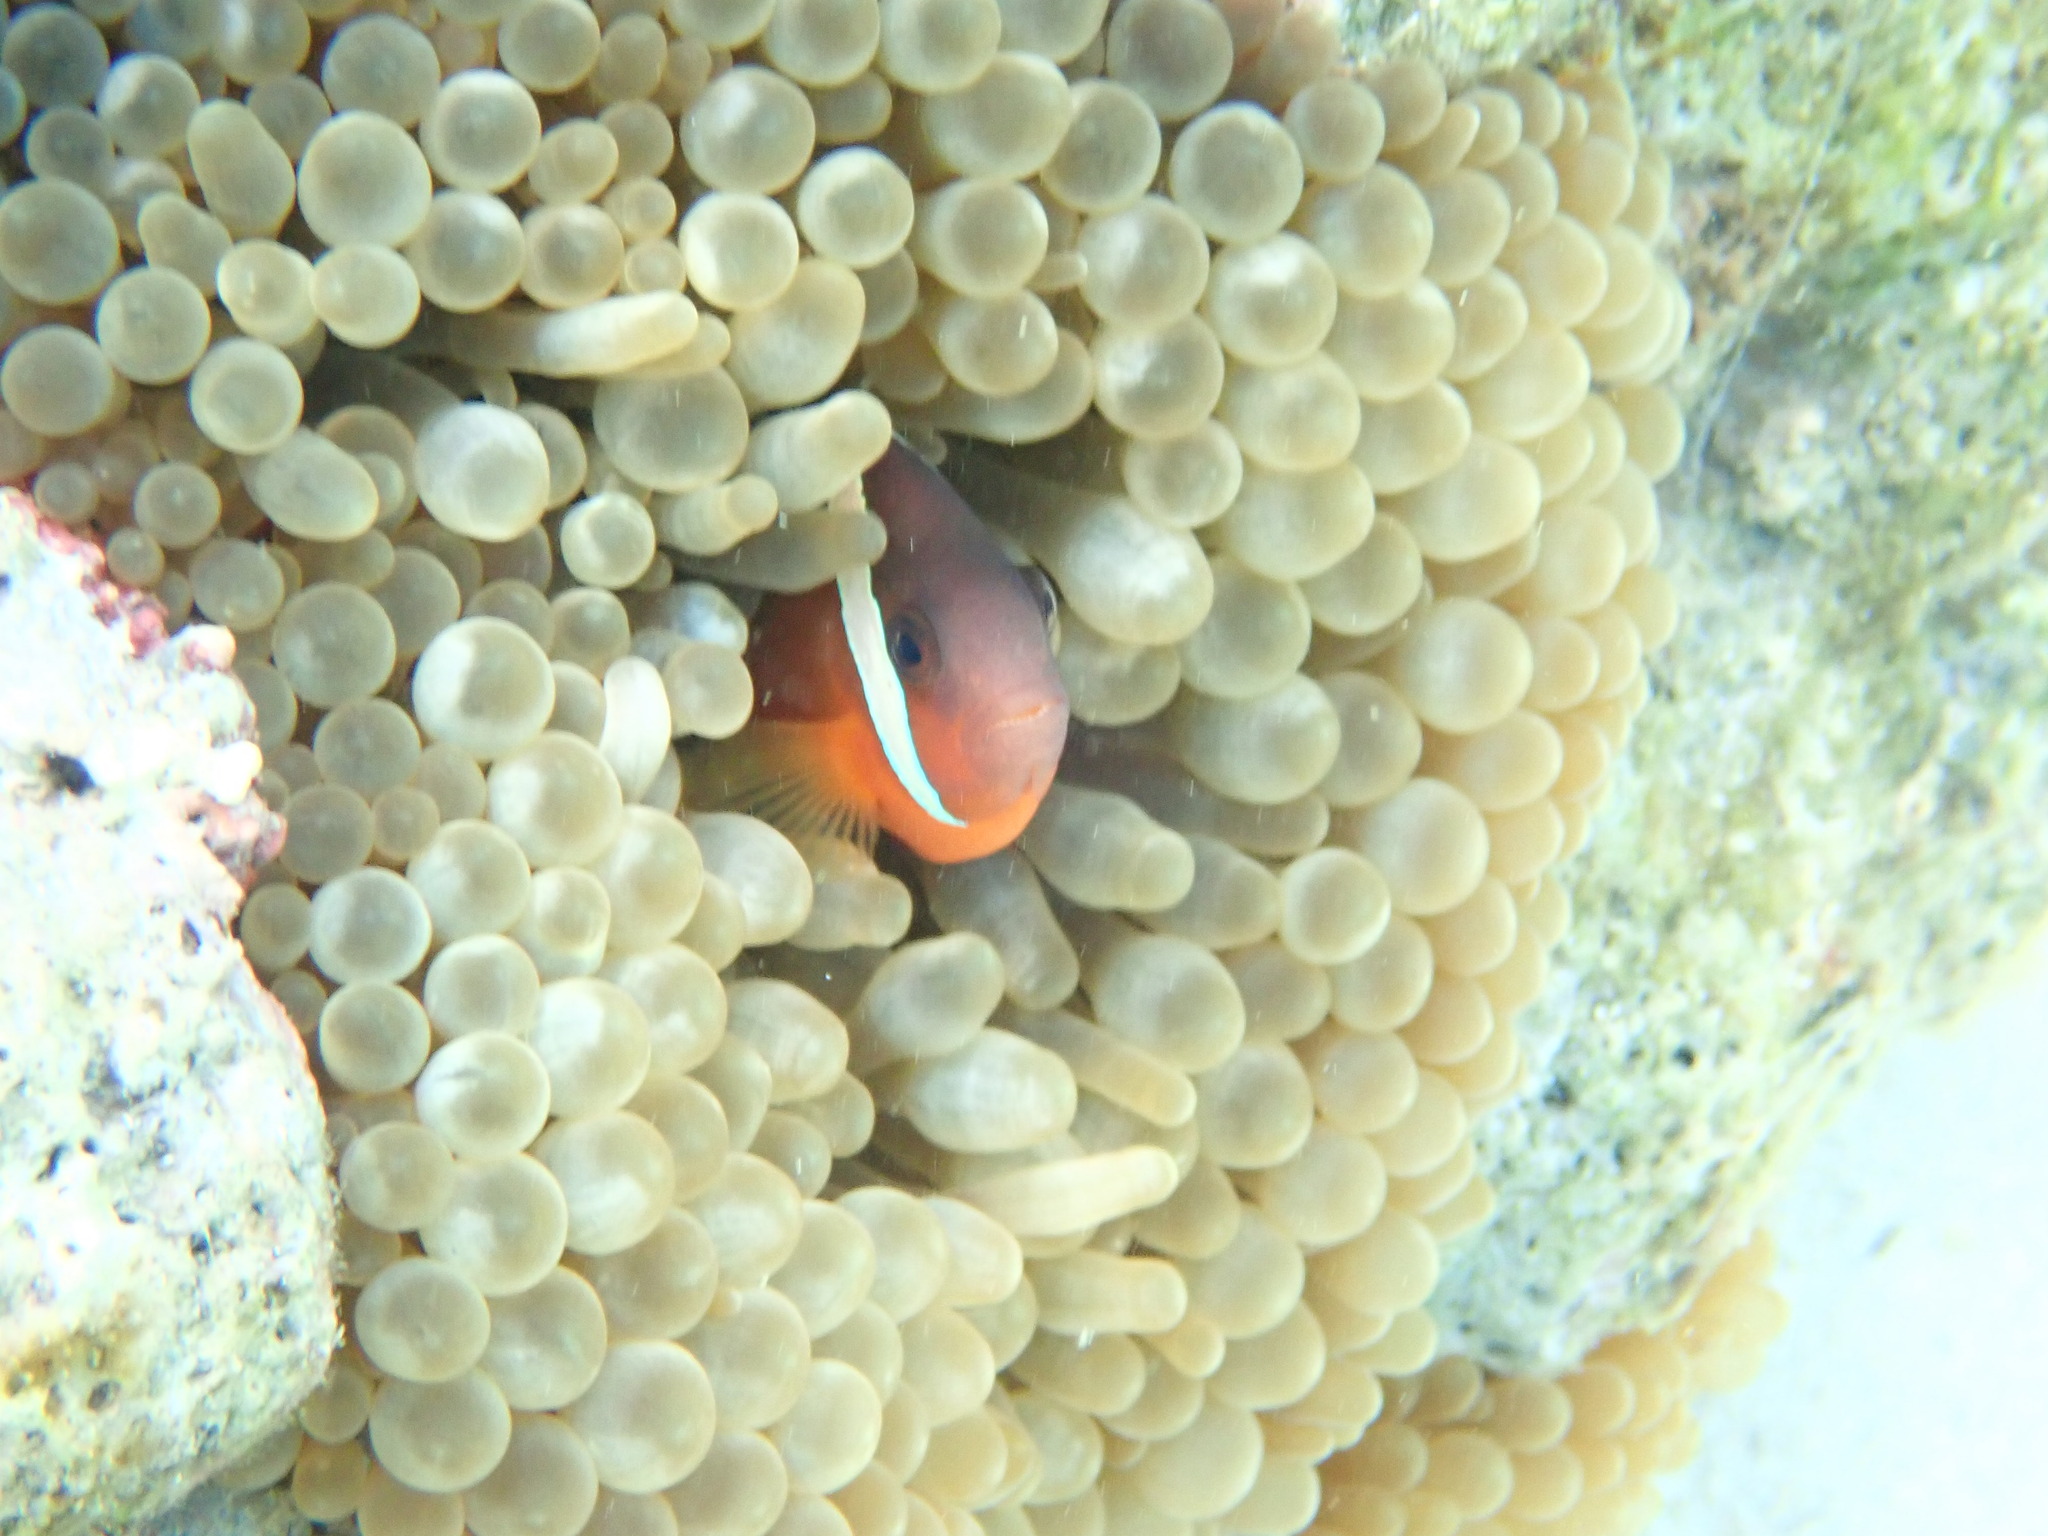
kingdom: Animalia
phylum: Chordata
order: Perciformes
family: Pomacentridae
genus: Amphiprion
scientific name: Amphiprion barberi
